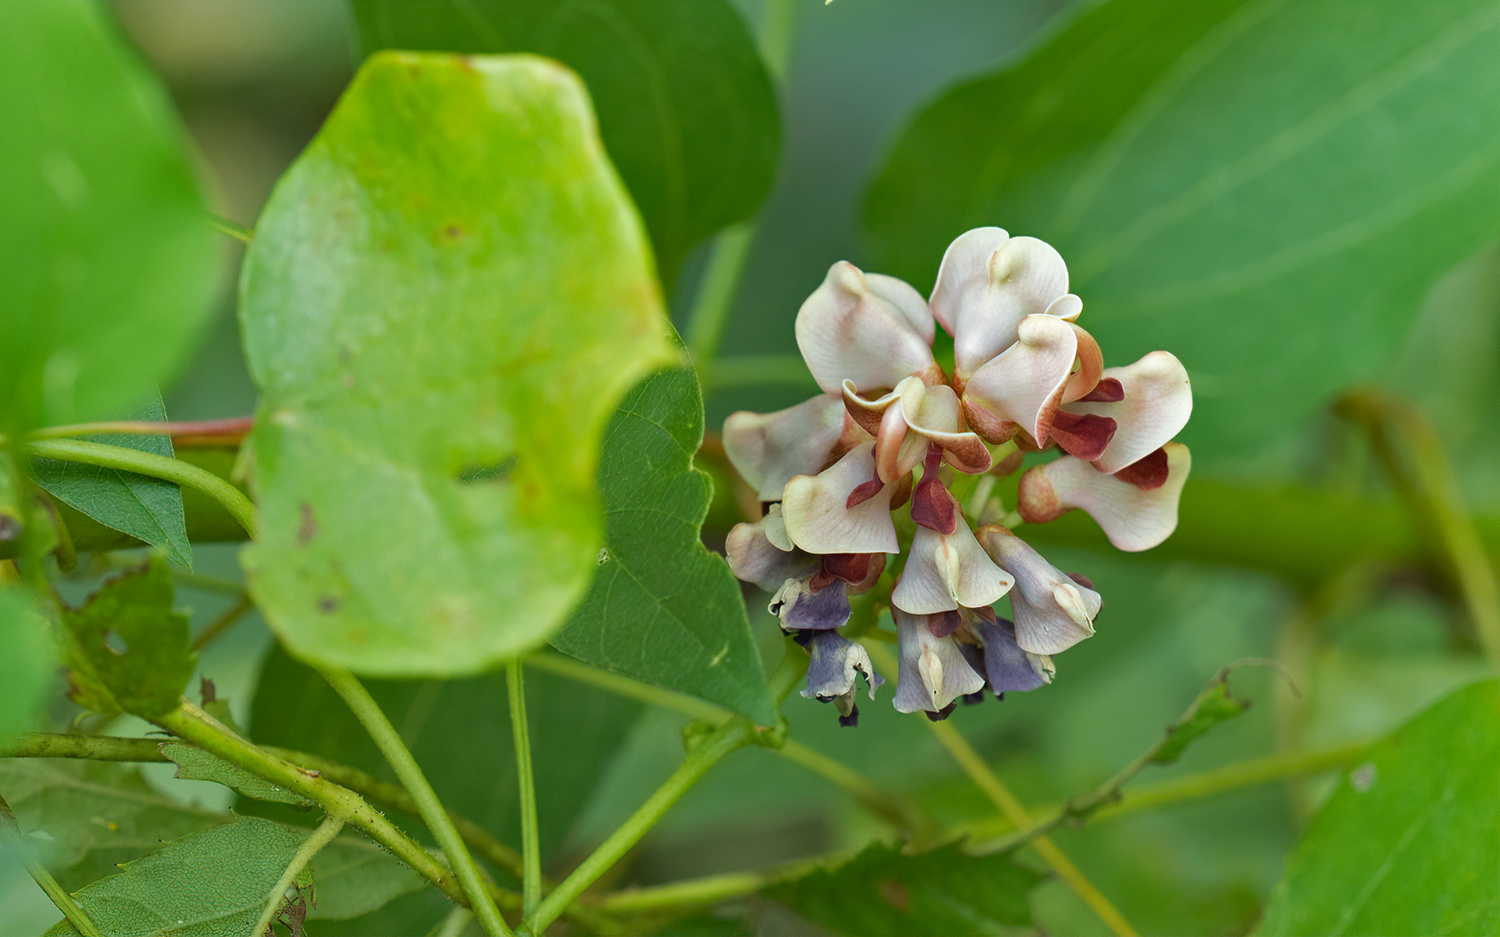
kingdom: Plantae
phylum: Tracheophyta
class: Magnoliopsida
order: Fabales
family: Fabaceae
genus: Apios
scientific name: Apios americana
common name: American potato-bean
